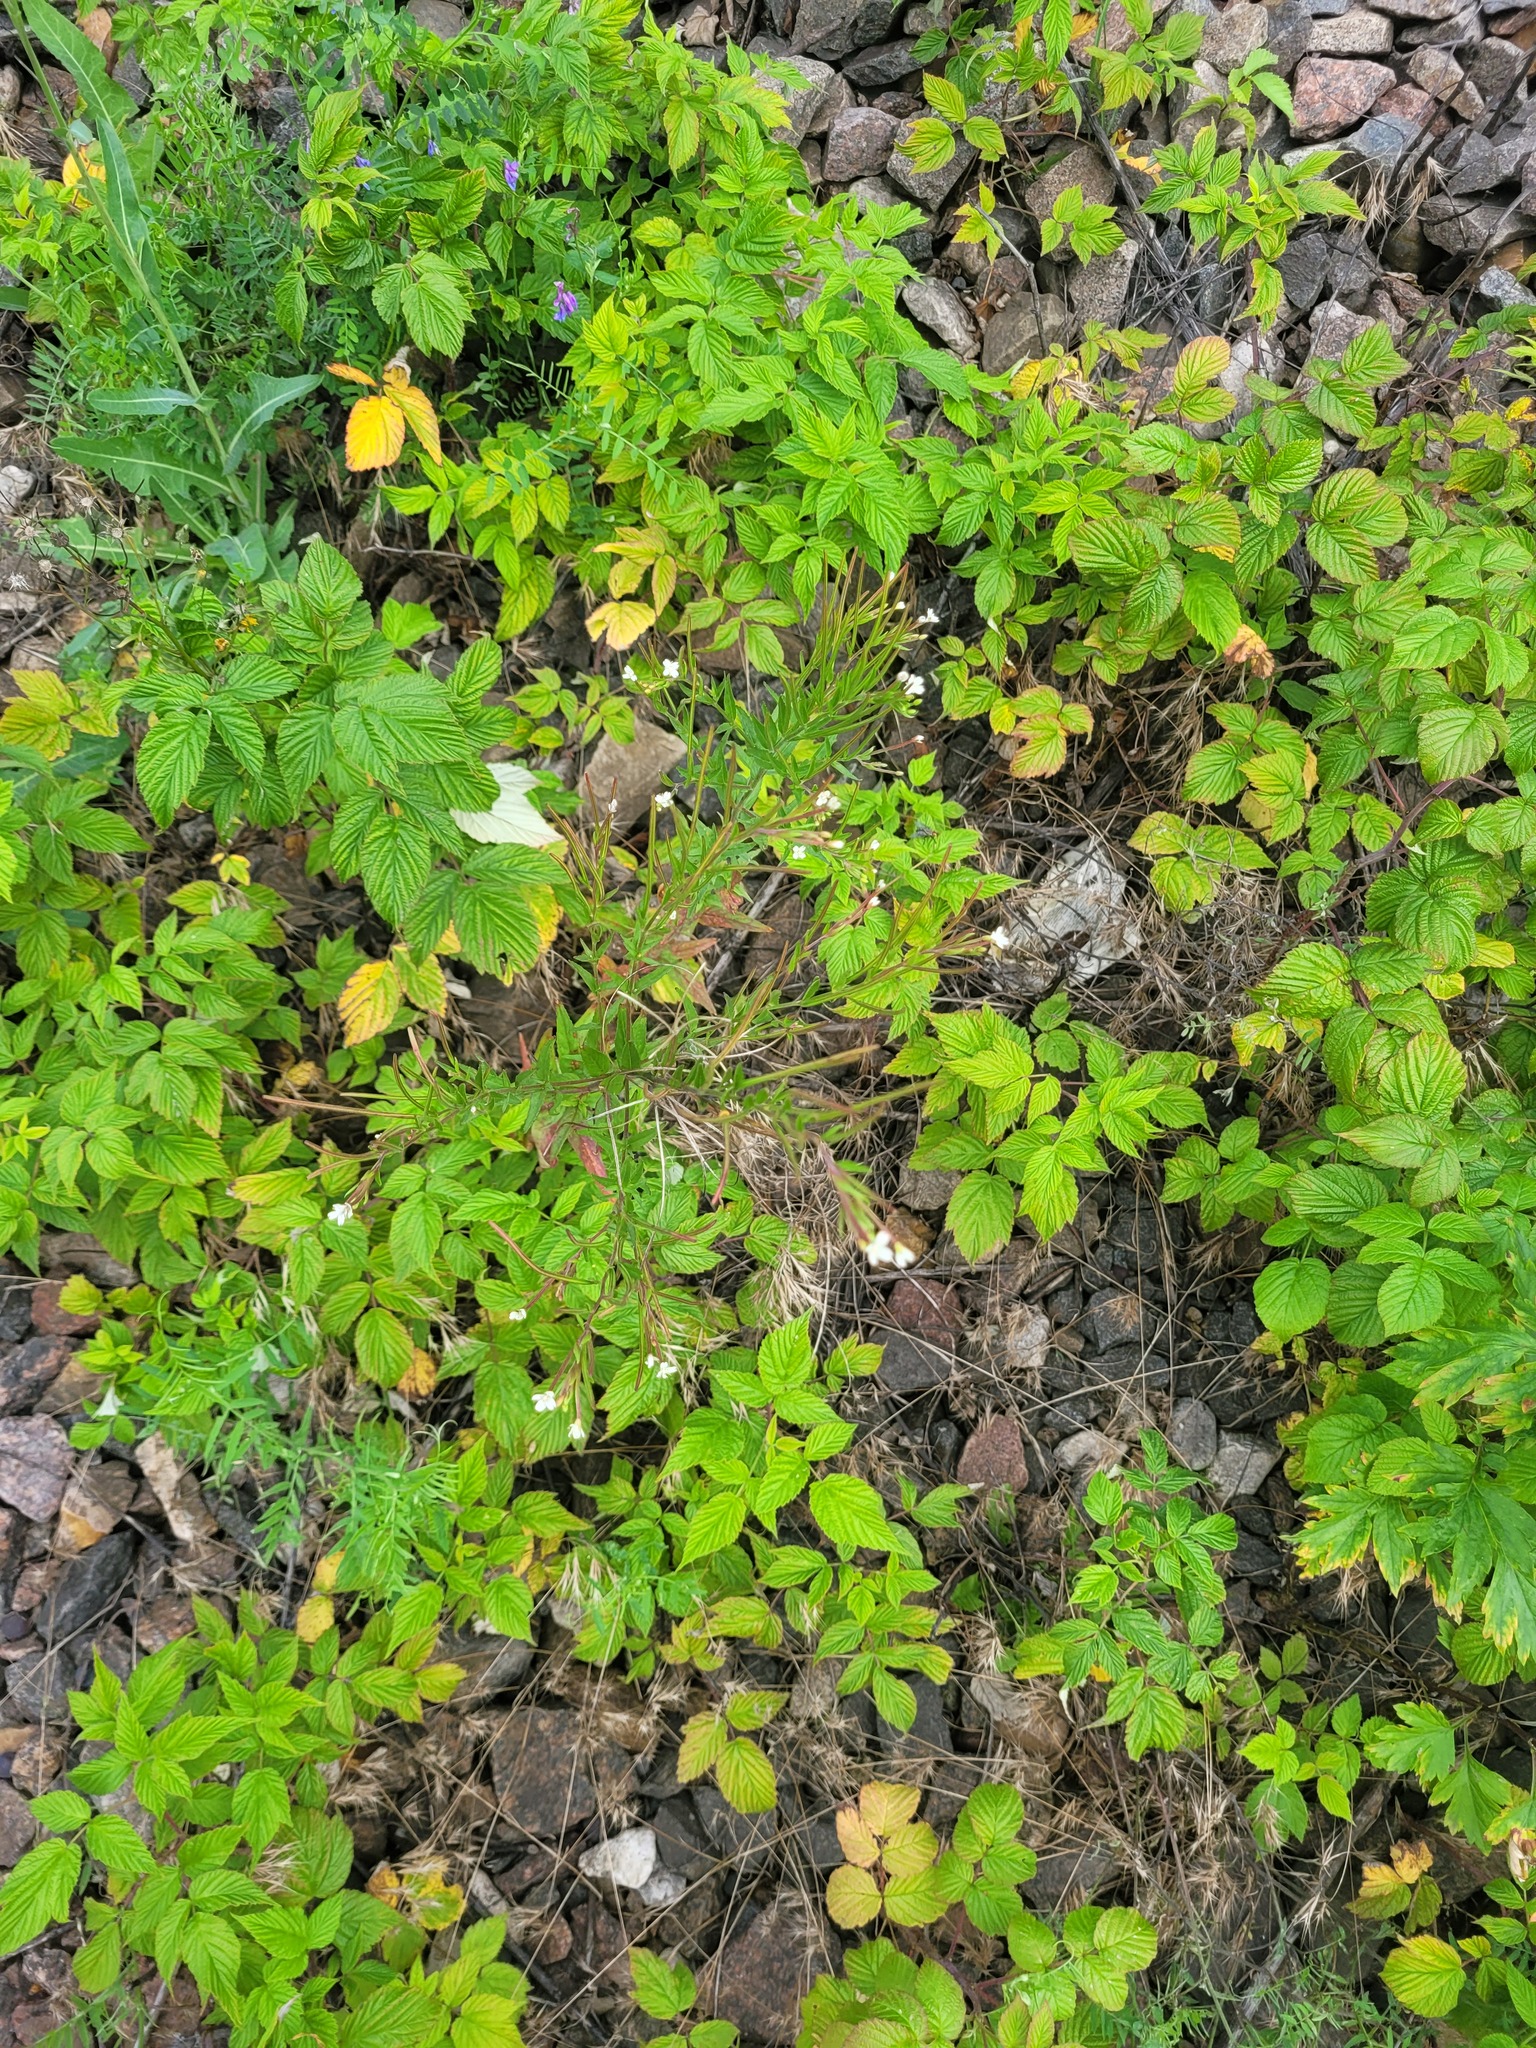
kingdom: Plantae
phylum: Tracheophyta
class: Magnoliopsida
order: Myrtales
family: Onagraceae
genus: Epilobium
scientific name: Epilobium pseudorubescens
